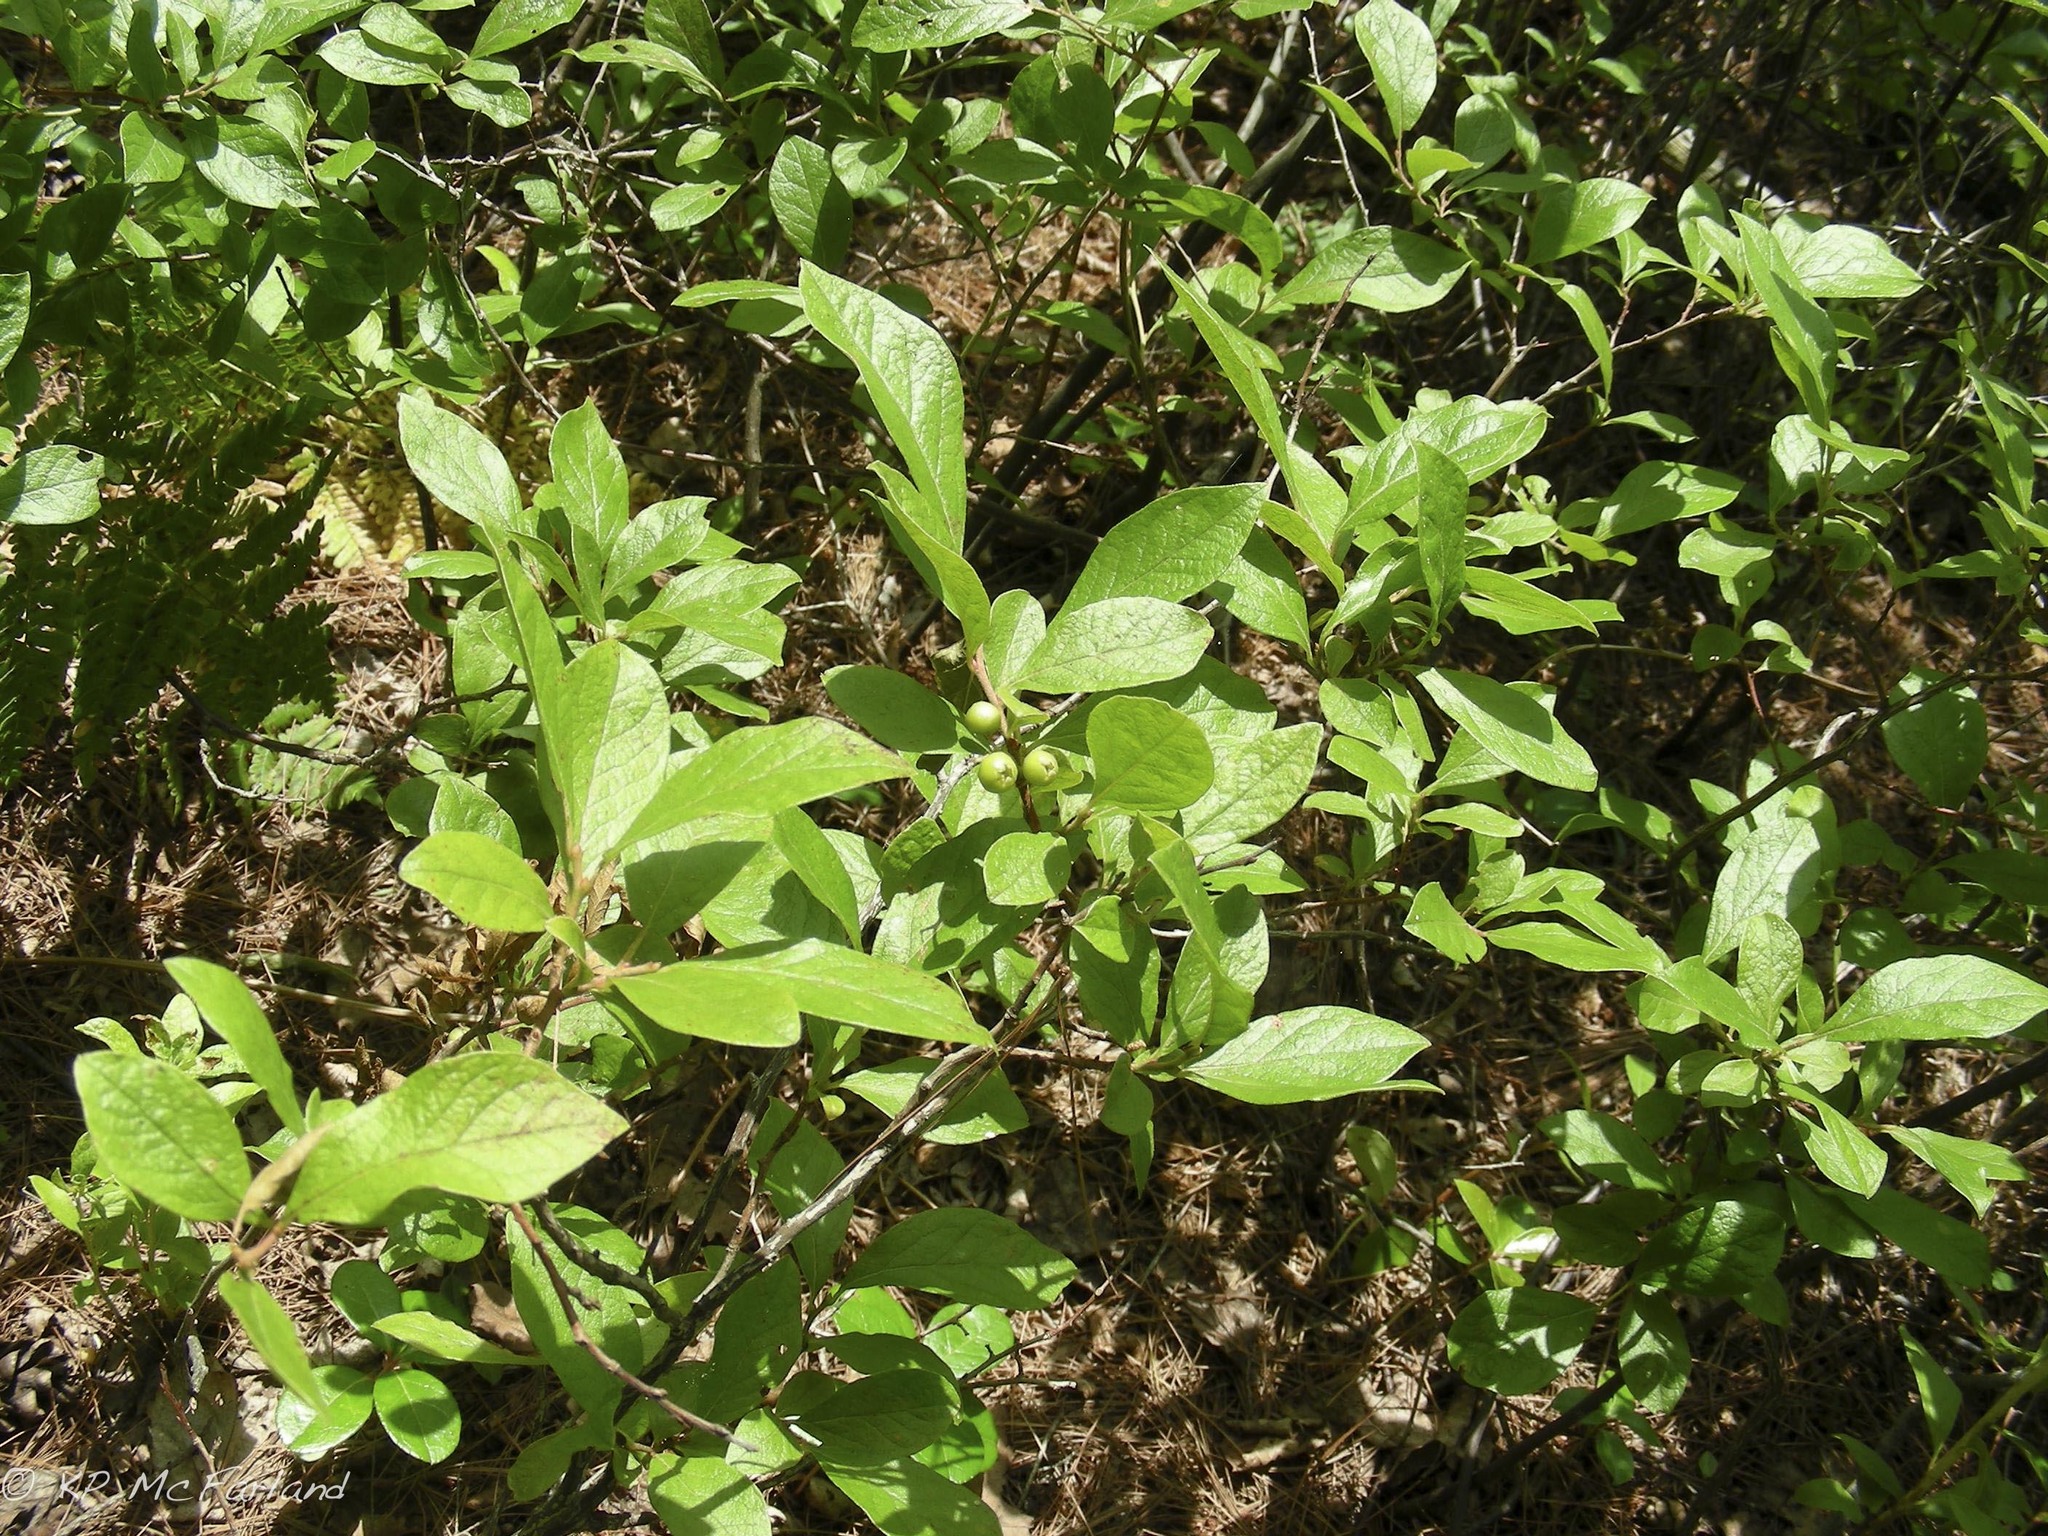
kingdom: Plantae
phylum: Tracheophyta
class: Magnoliopsida
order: Ericales
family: Ericaceae
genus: Gaylussacia
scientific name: Gaylussacia baccata
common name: Black huckleberry
